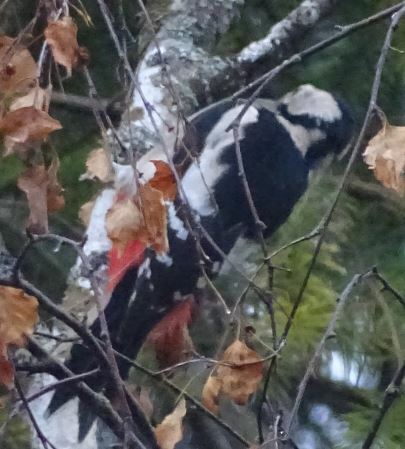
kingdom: Animalia
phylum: Chordata
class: Aves
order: Piciformes
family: Picidae
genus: Dendrocopos
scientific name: Dendrocopos major
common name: Great spotted woodpecker
